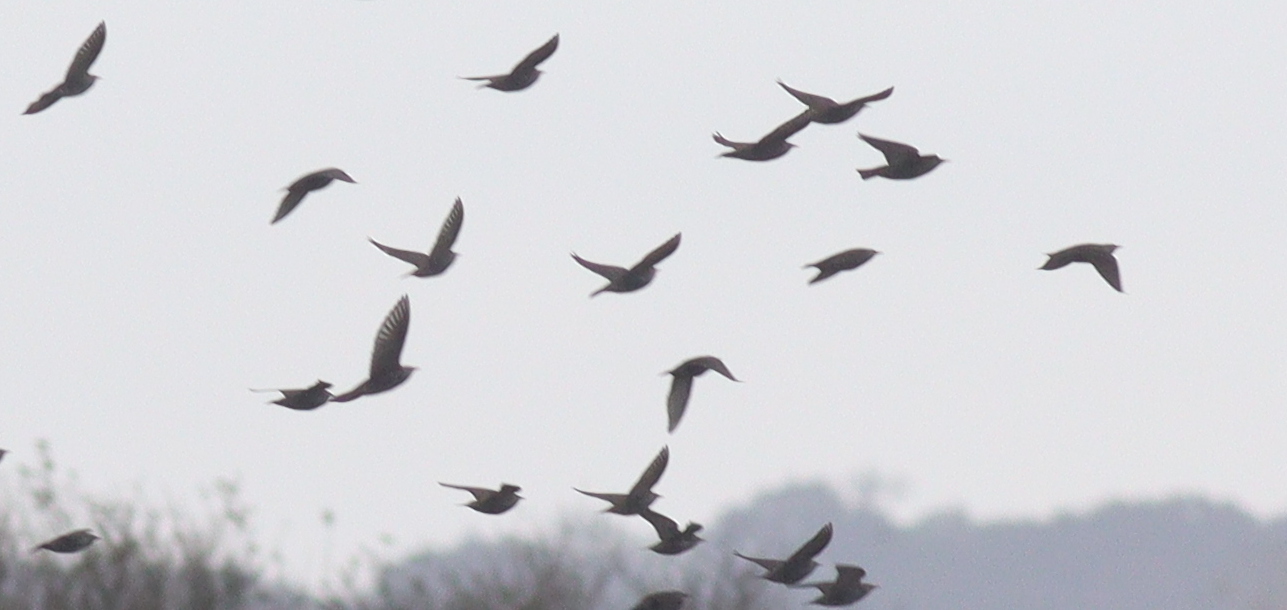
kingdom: Animalia
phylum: Chordata
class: Aves
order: Passeriformes
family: Sturnidae
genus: Sturnus
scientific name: Sturnus vulgaris
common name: Common starling
